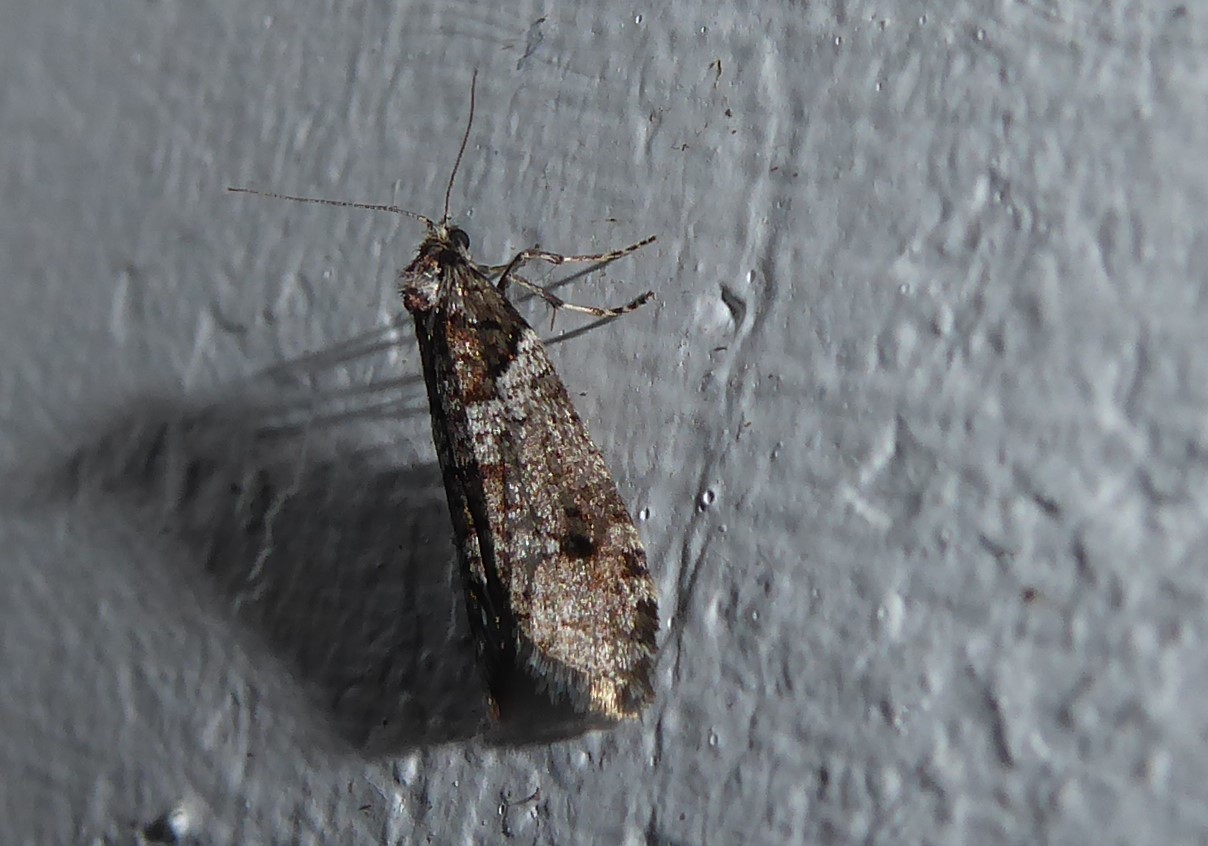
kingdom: Animalia
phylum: Arthropoda
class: Insecta
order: Lepidoptera
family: Psychidae
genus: Lepidoscia
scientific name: Lepidoscia heliochares
